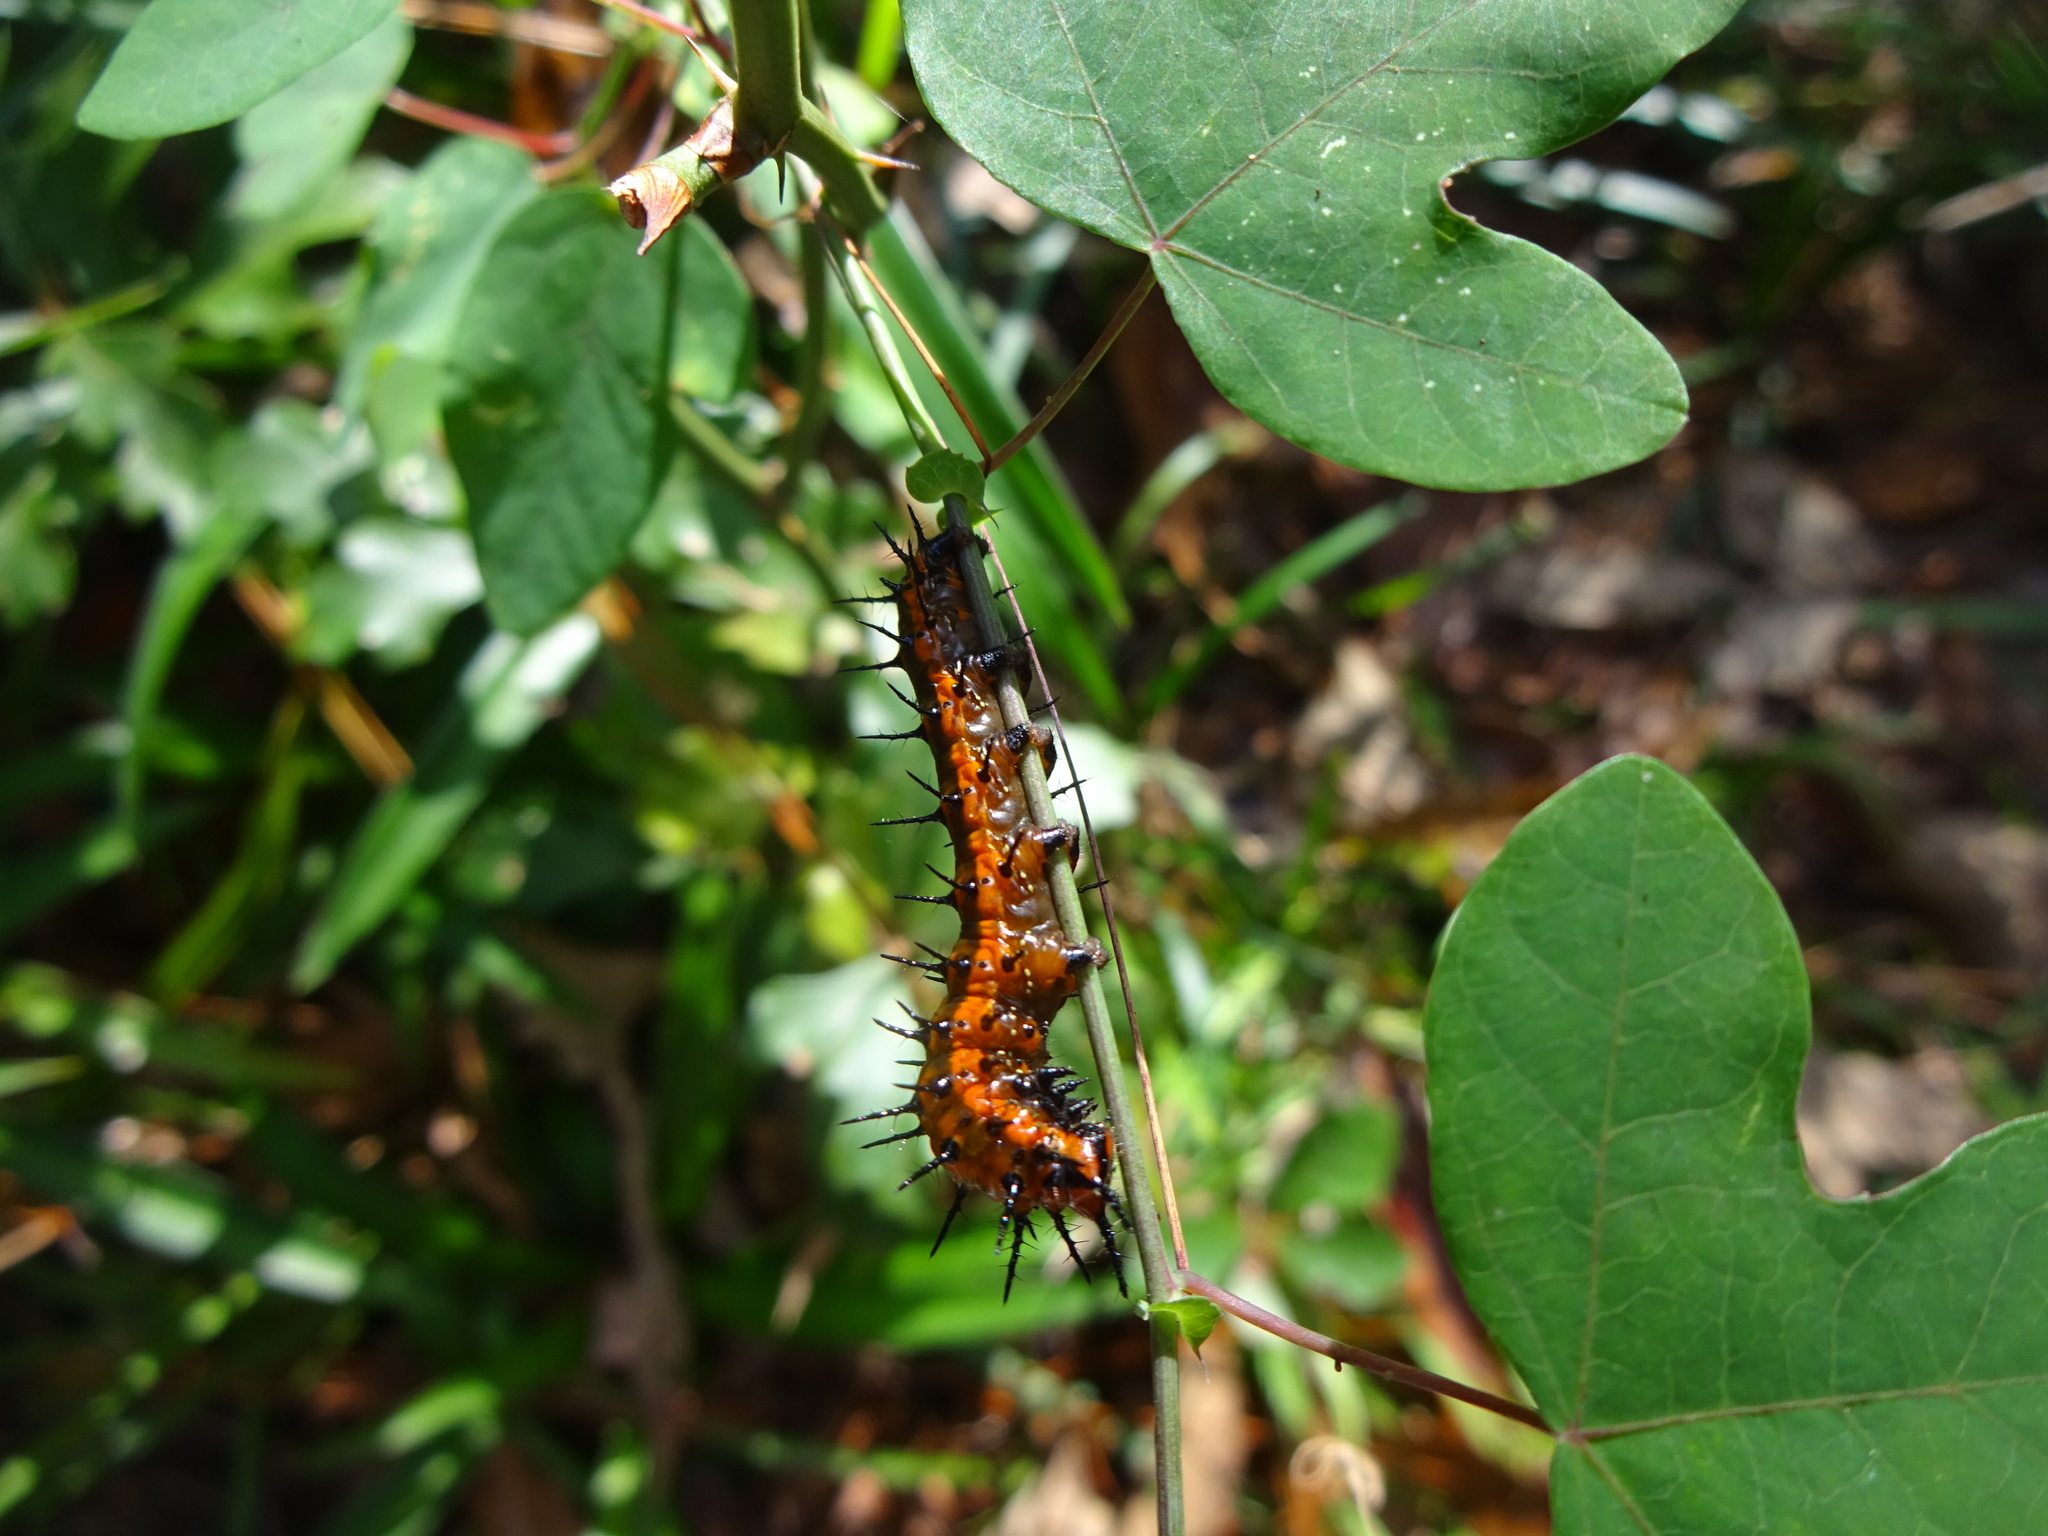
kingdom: Animalia
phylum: Arthropoda
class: Insecta
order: Lepidoptera
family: Nymphalidae
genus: Dione
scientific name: Dione vanillae
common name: Gulf fritillary
